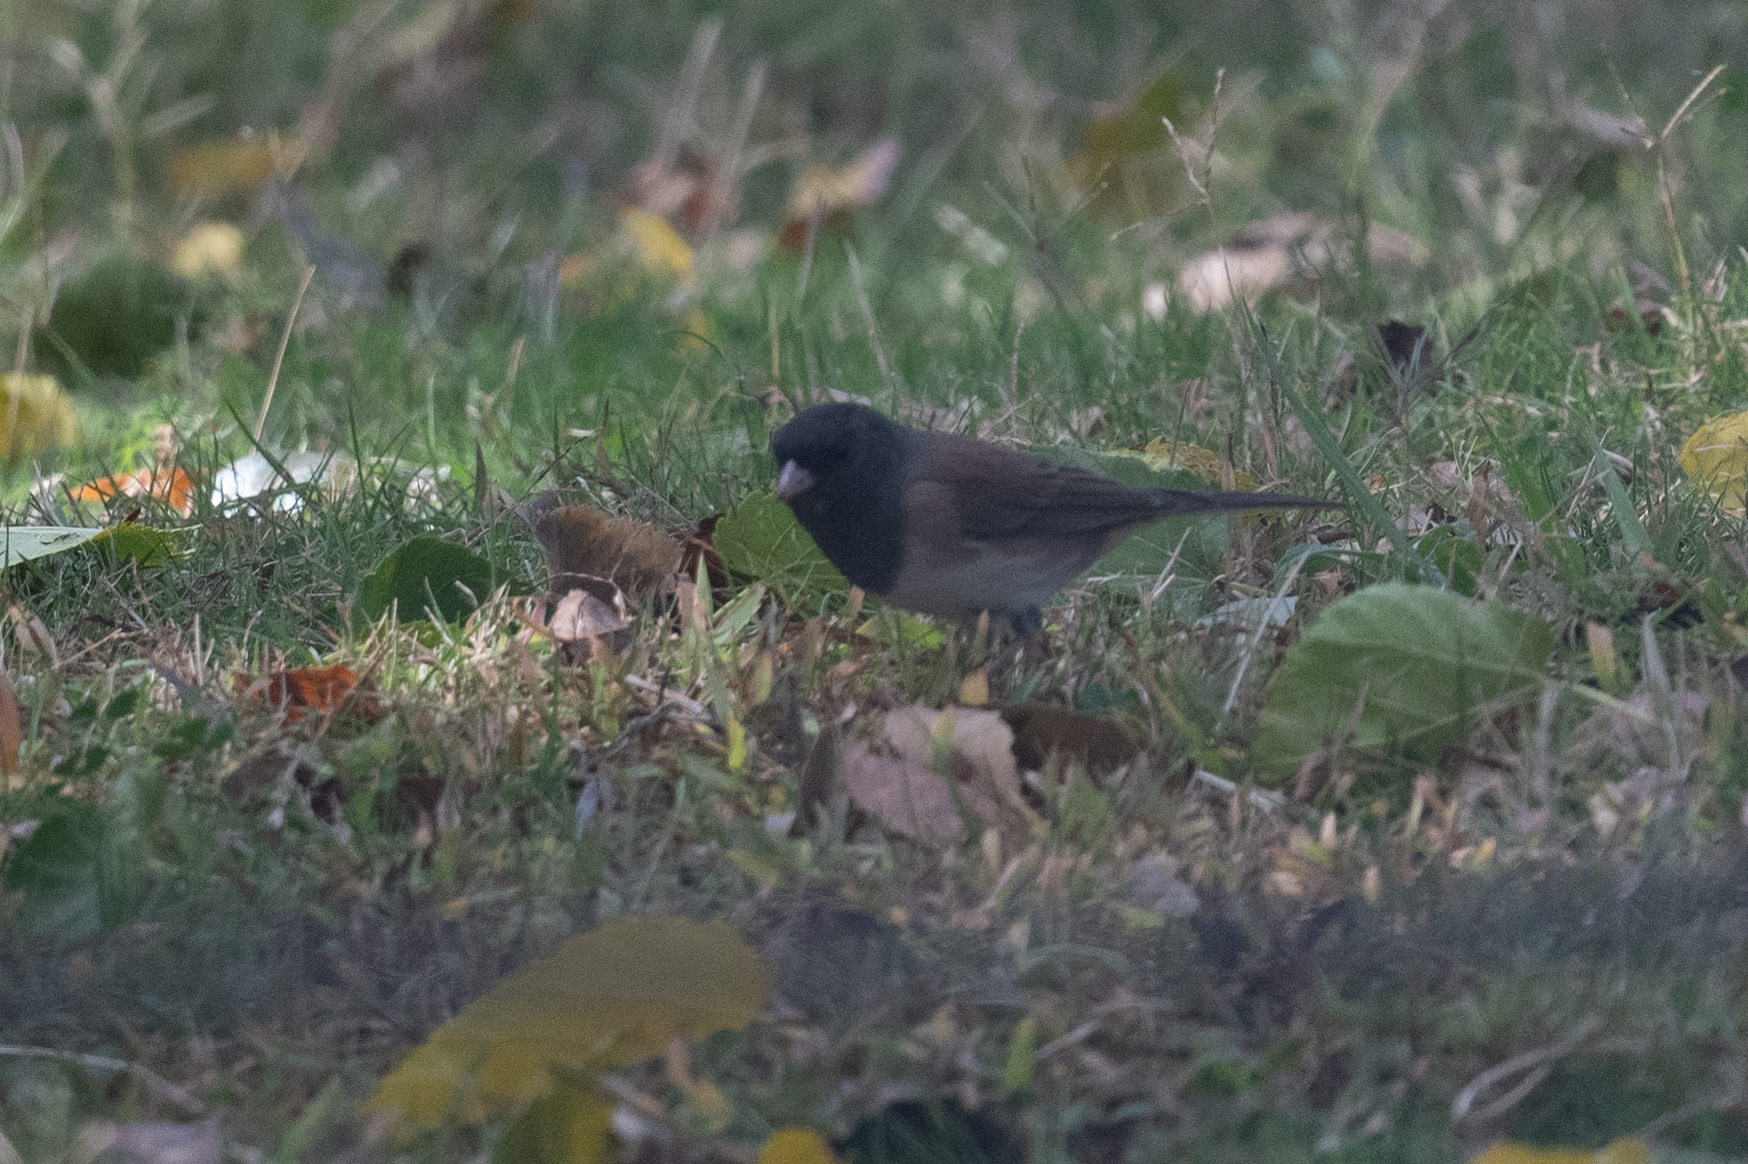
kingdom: Animalia
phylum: Chordata
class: Aves
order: Passeriformes
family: Passerellidae
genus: Junco
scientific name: Junco hyemalis
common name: Dark-eyed junco
